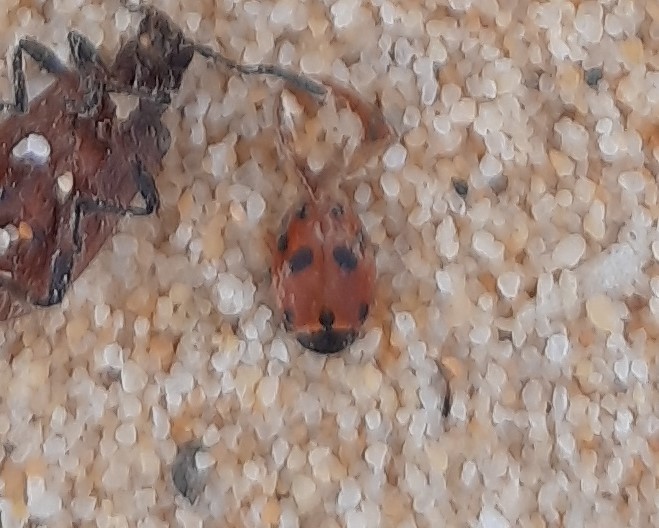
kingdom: Animalia
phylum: Arthropoda
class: Insecta
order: Coleoptera
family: Coccinellidae
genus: Hippodamia
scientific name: Hippodamia variegata
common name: Ladybird beetle
